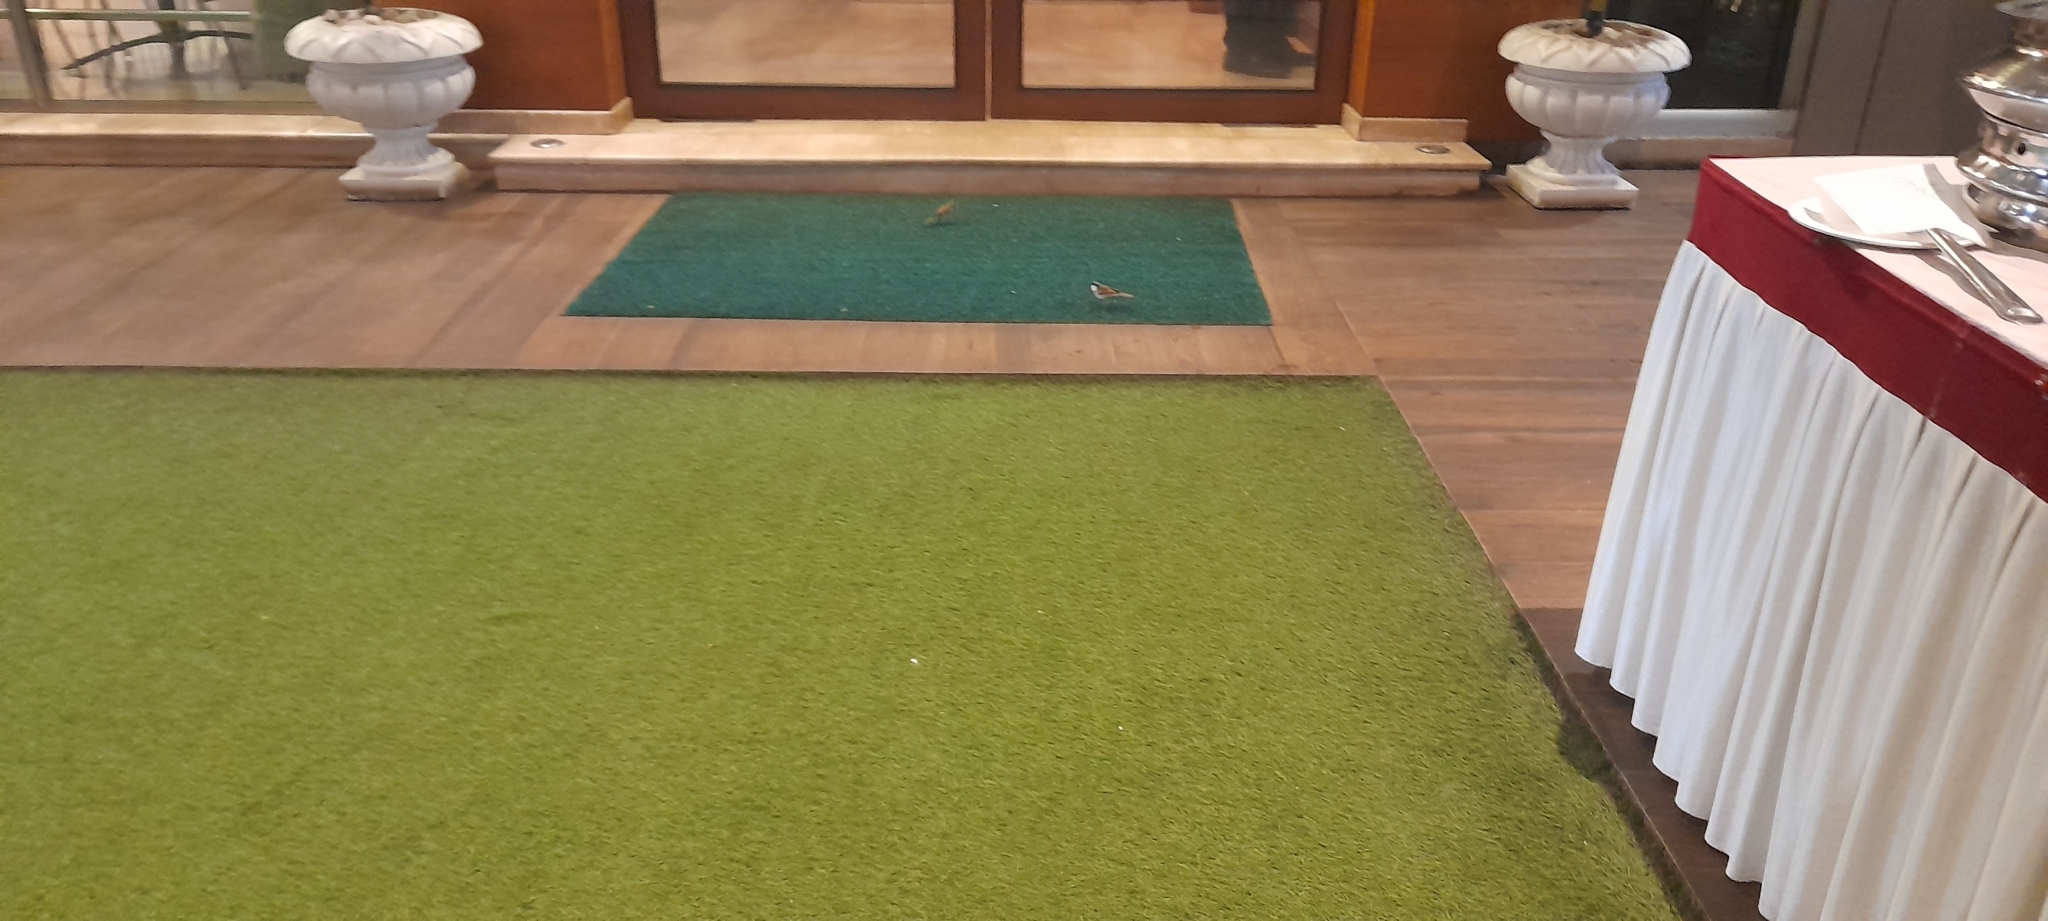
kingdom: Animalia
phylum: Chordata
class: Aves
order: Passeriformes
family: Passeridae
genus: Passer
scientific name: Passer domesticus
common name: House sparrow
